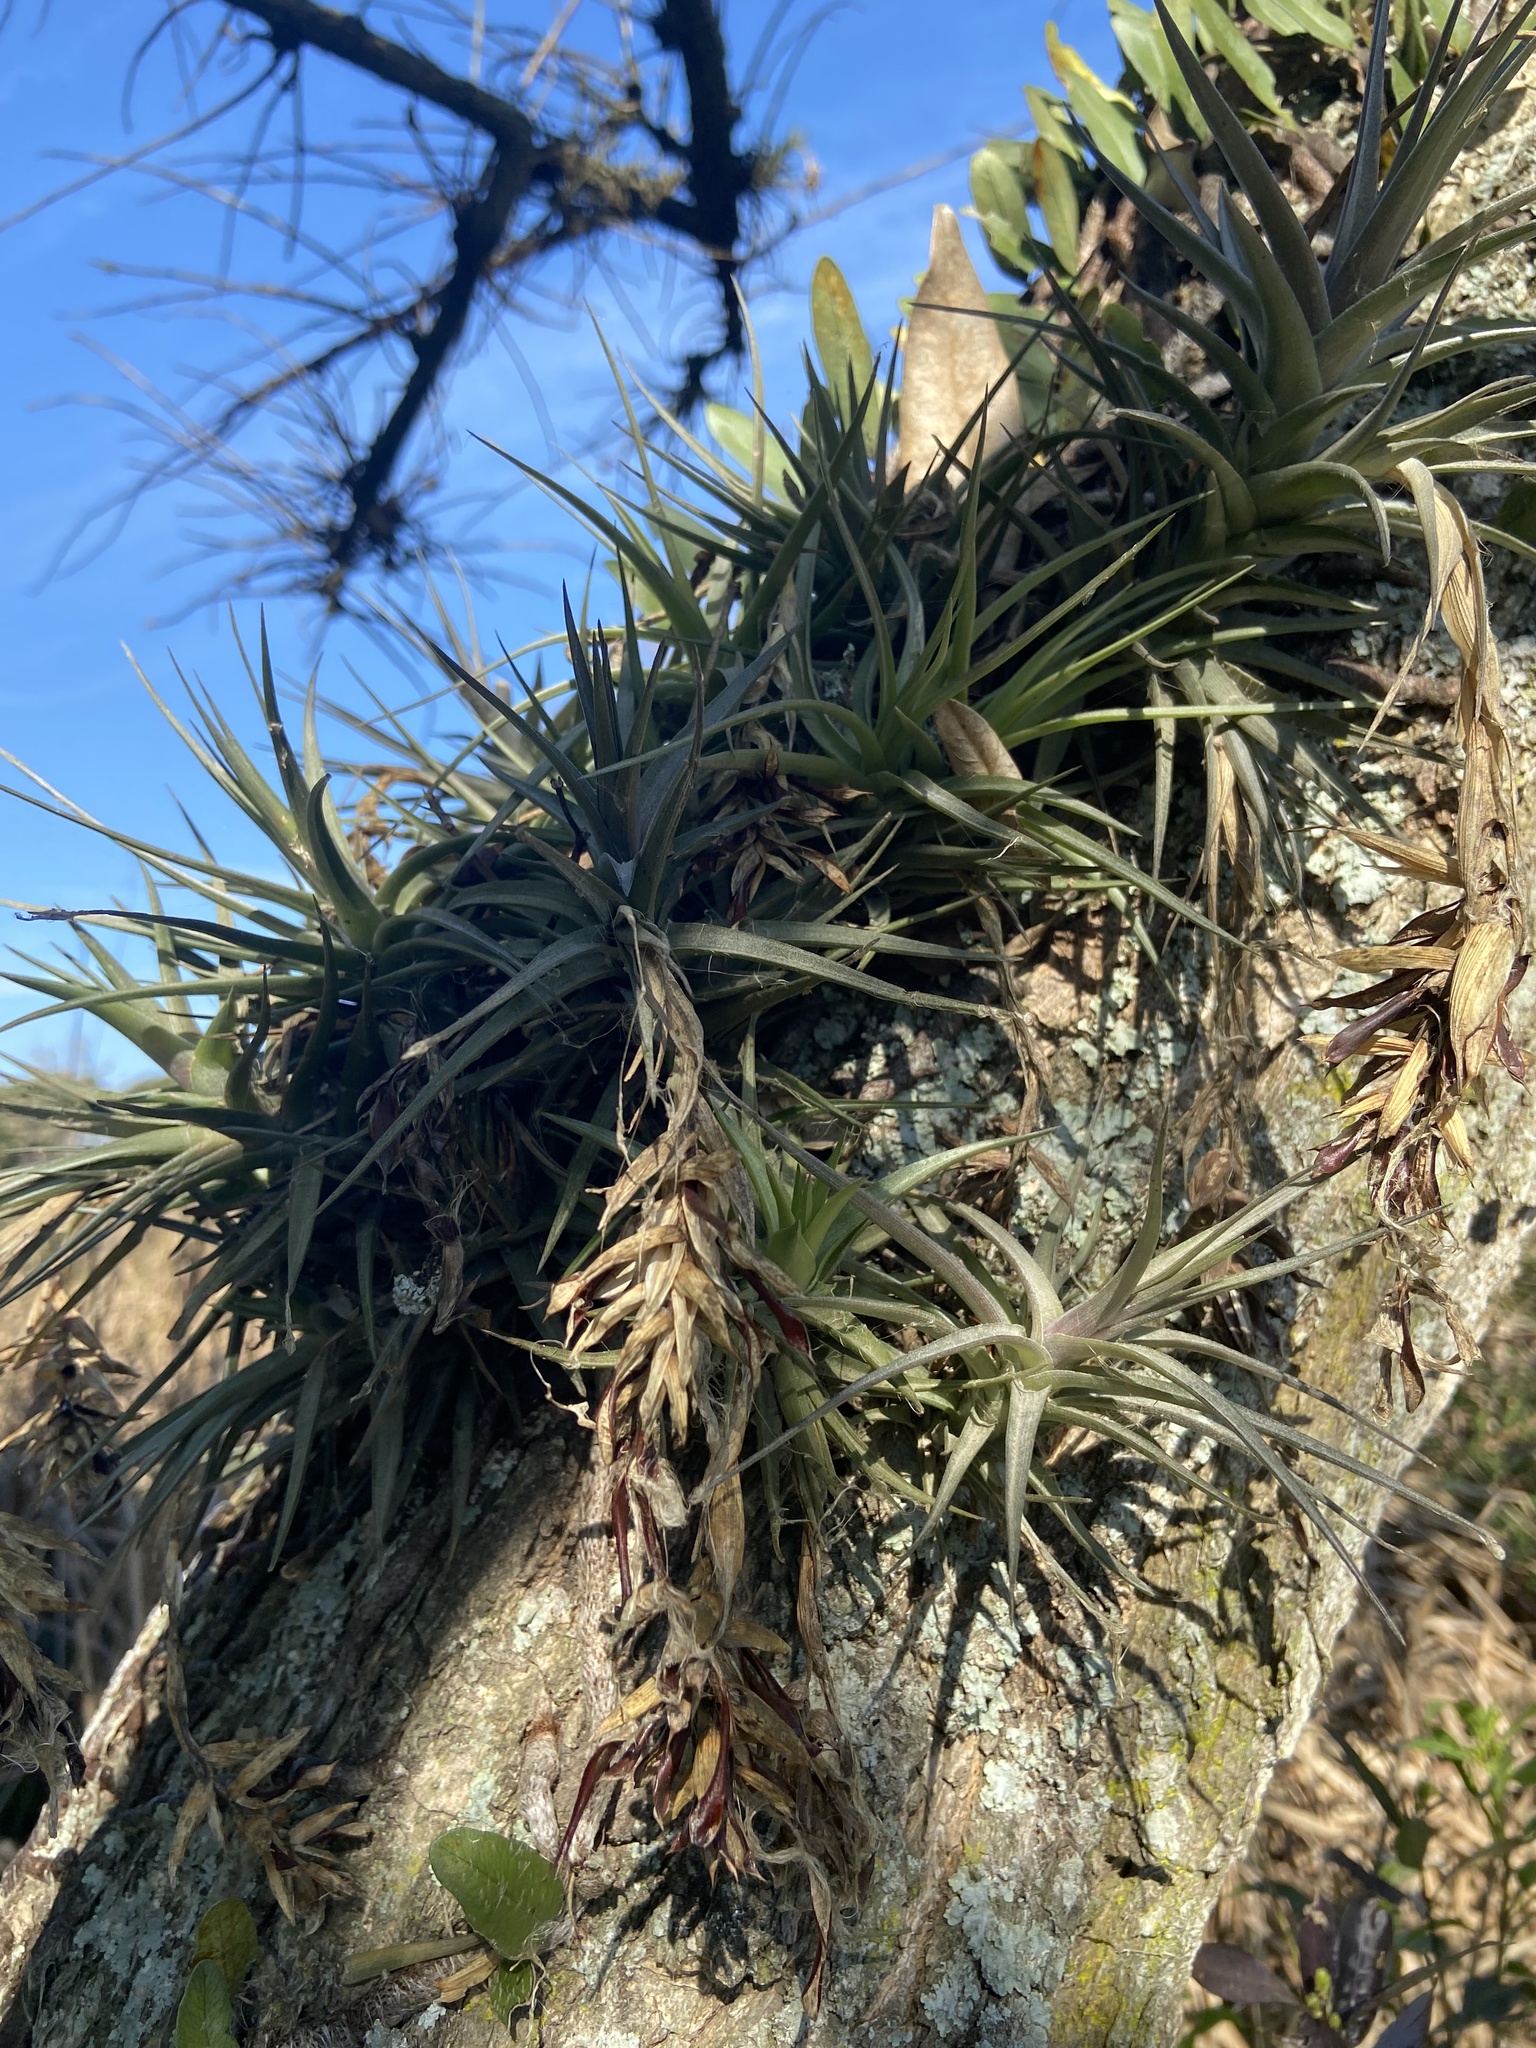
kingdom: Plantae
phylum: Tracheophyta
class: Liliopsida
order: Poales
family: Bromeliaceae
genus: Tillandsia
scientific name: Tillandsia aeranthos
